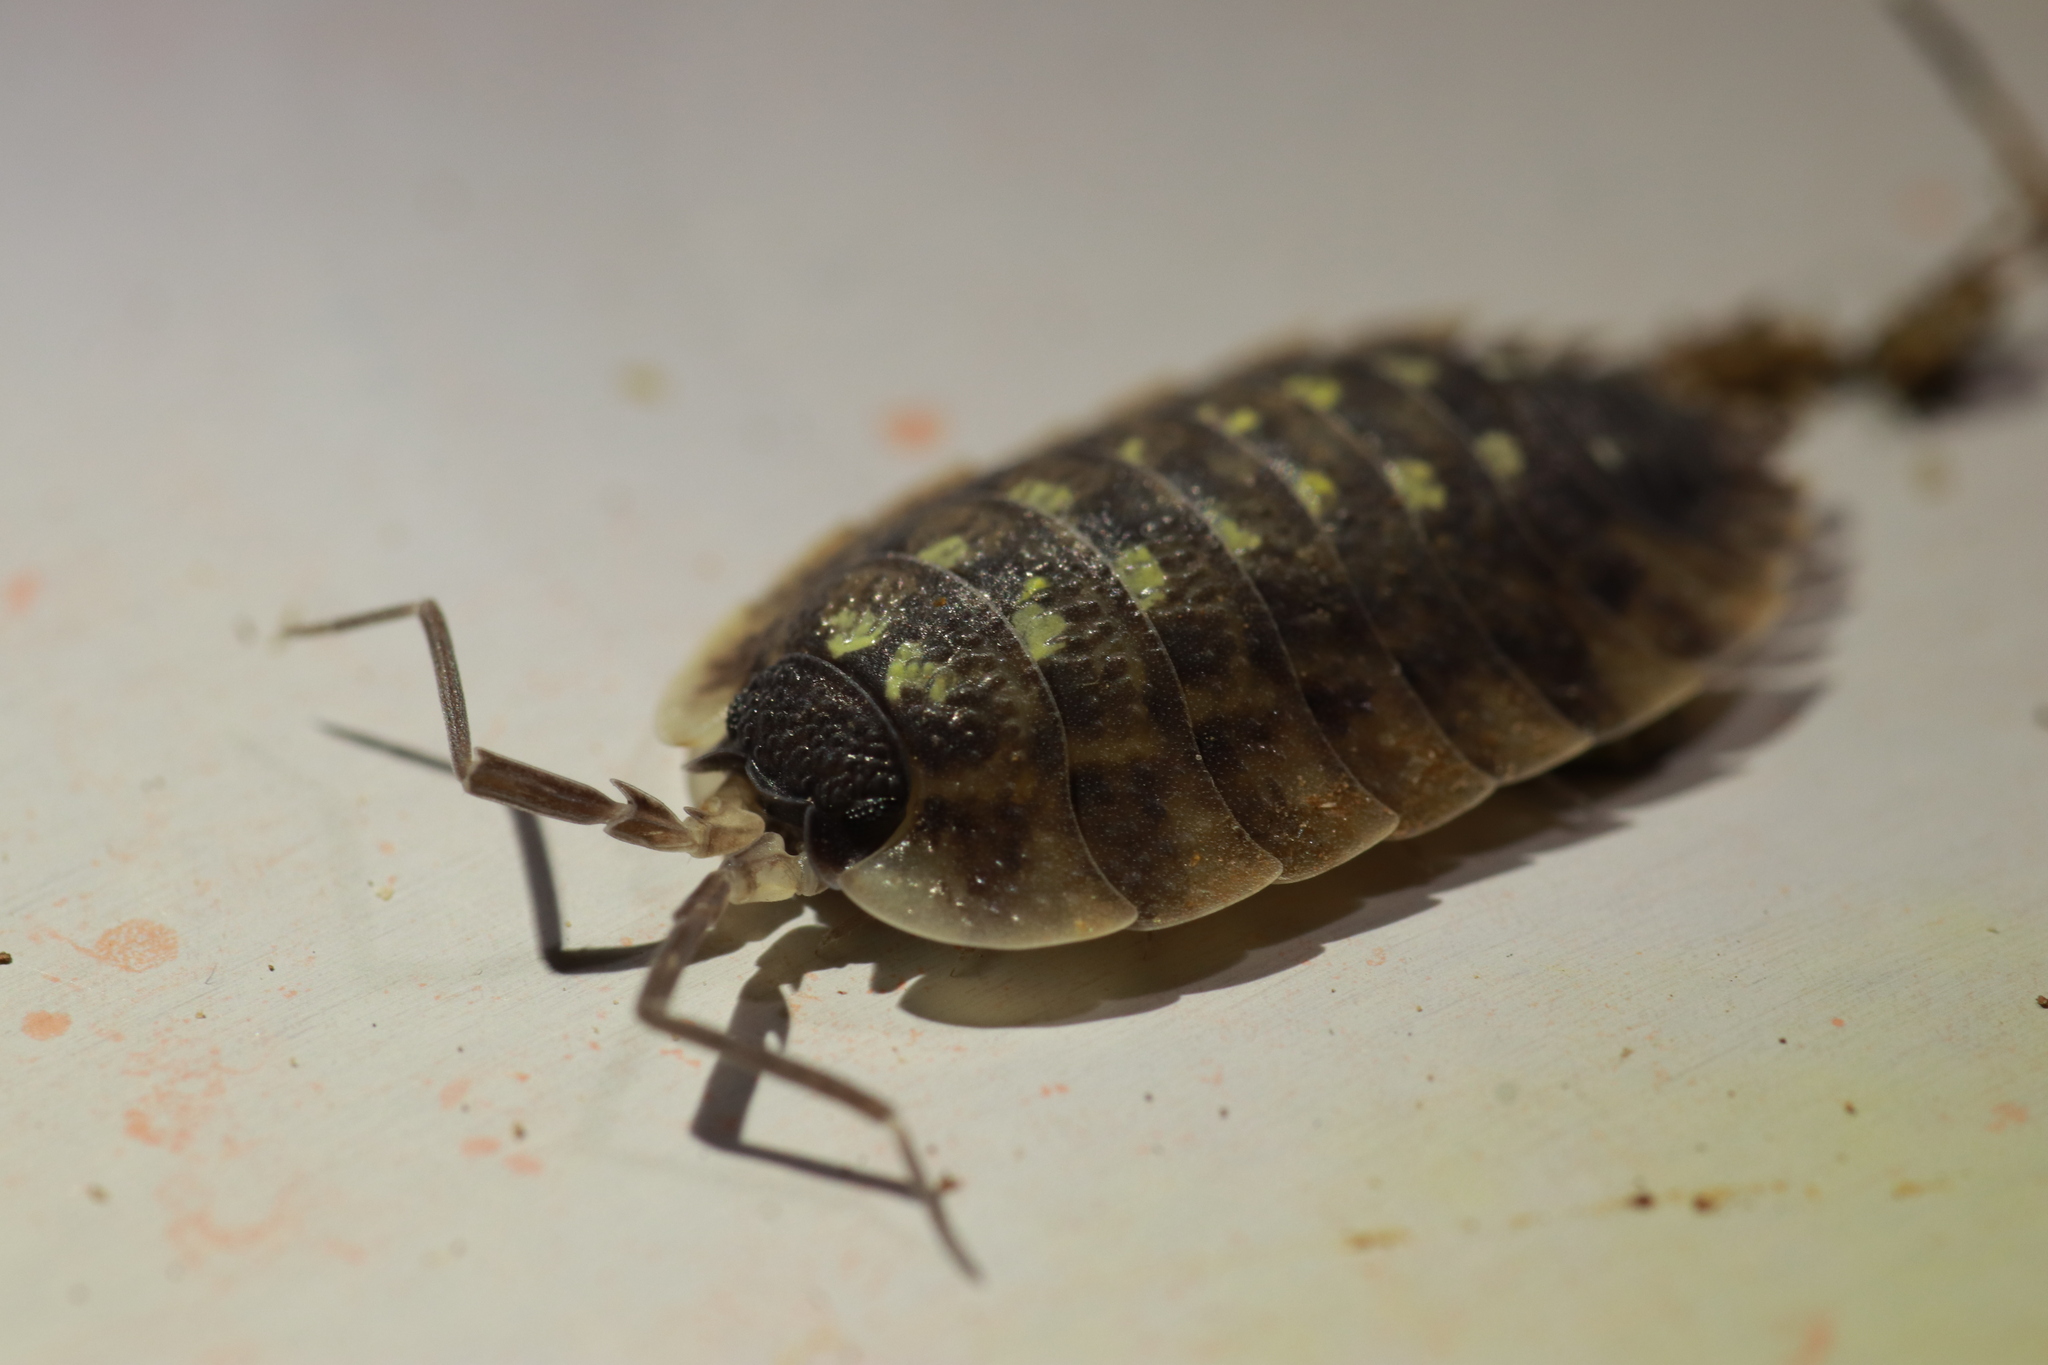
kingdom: Animalia
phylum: Arthropoda
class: Malacostraca
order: Isopoda
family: Porcellionidae
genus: Porcellio
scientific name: Porcellio spinicornis
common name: Painted woodlouse
